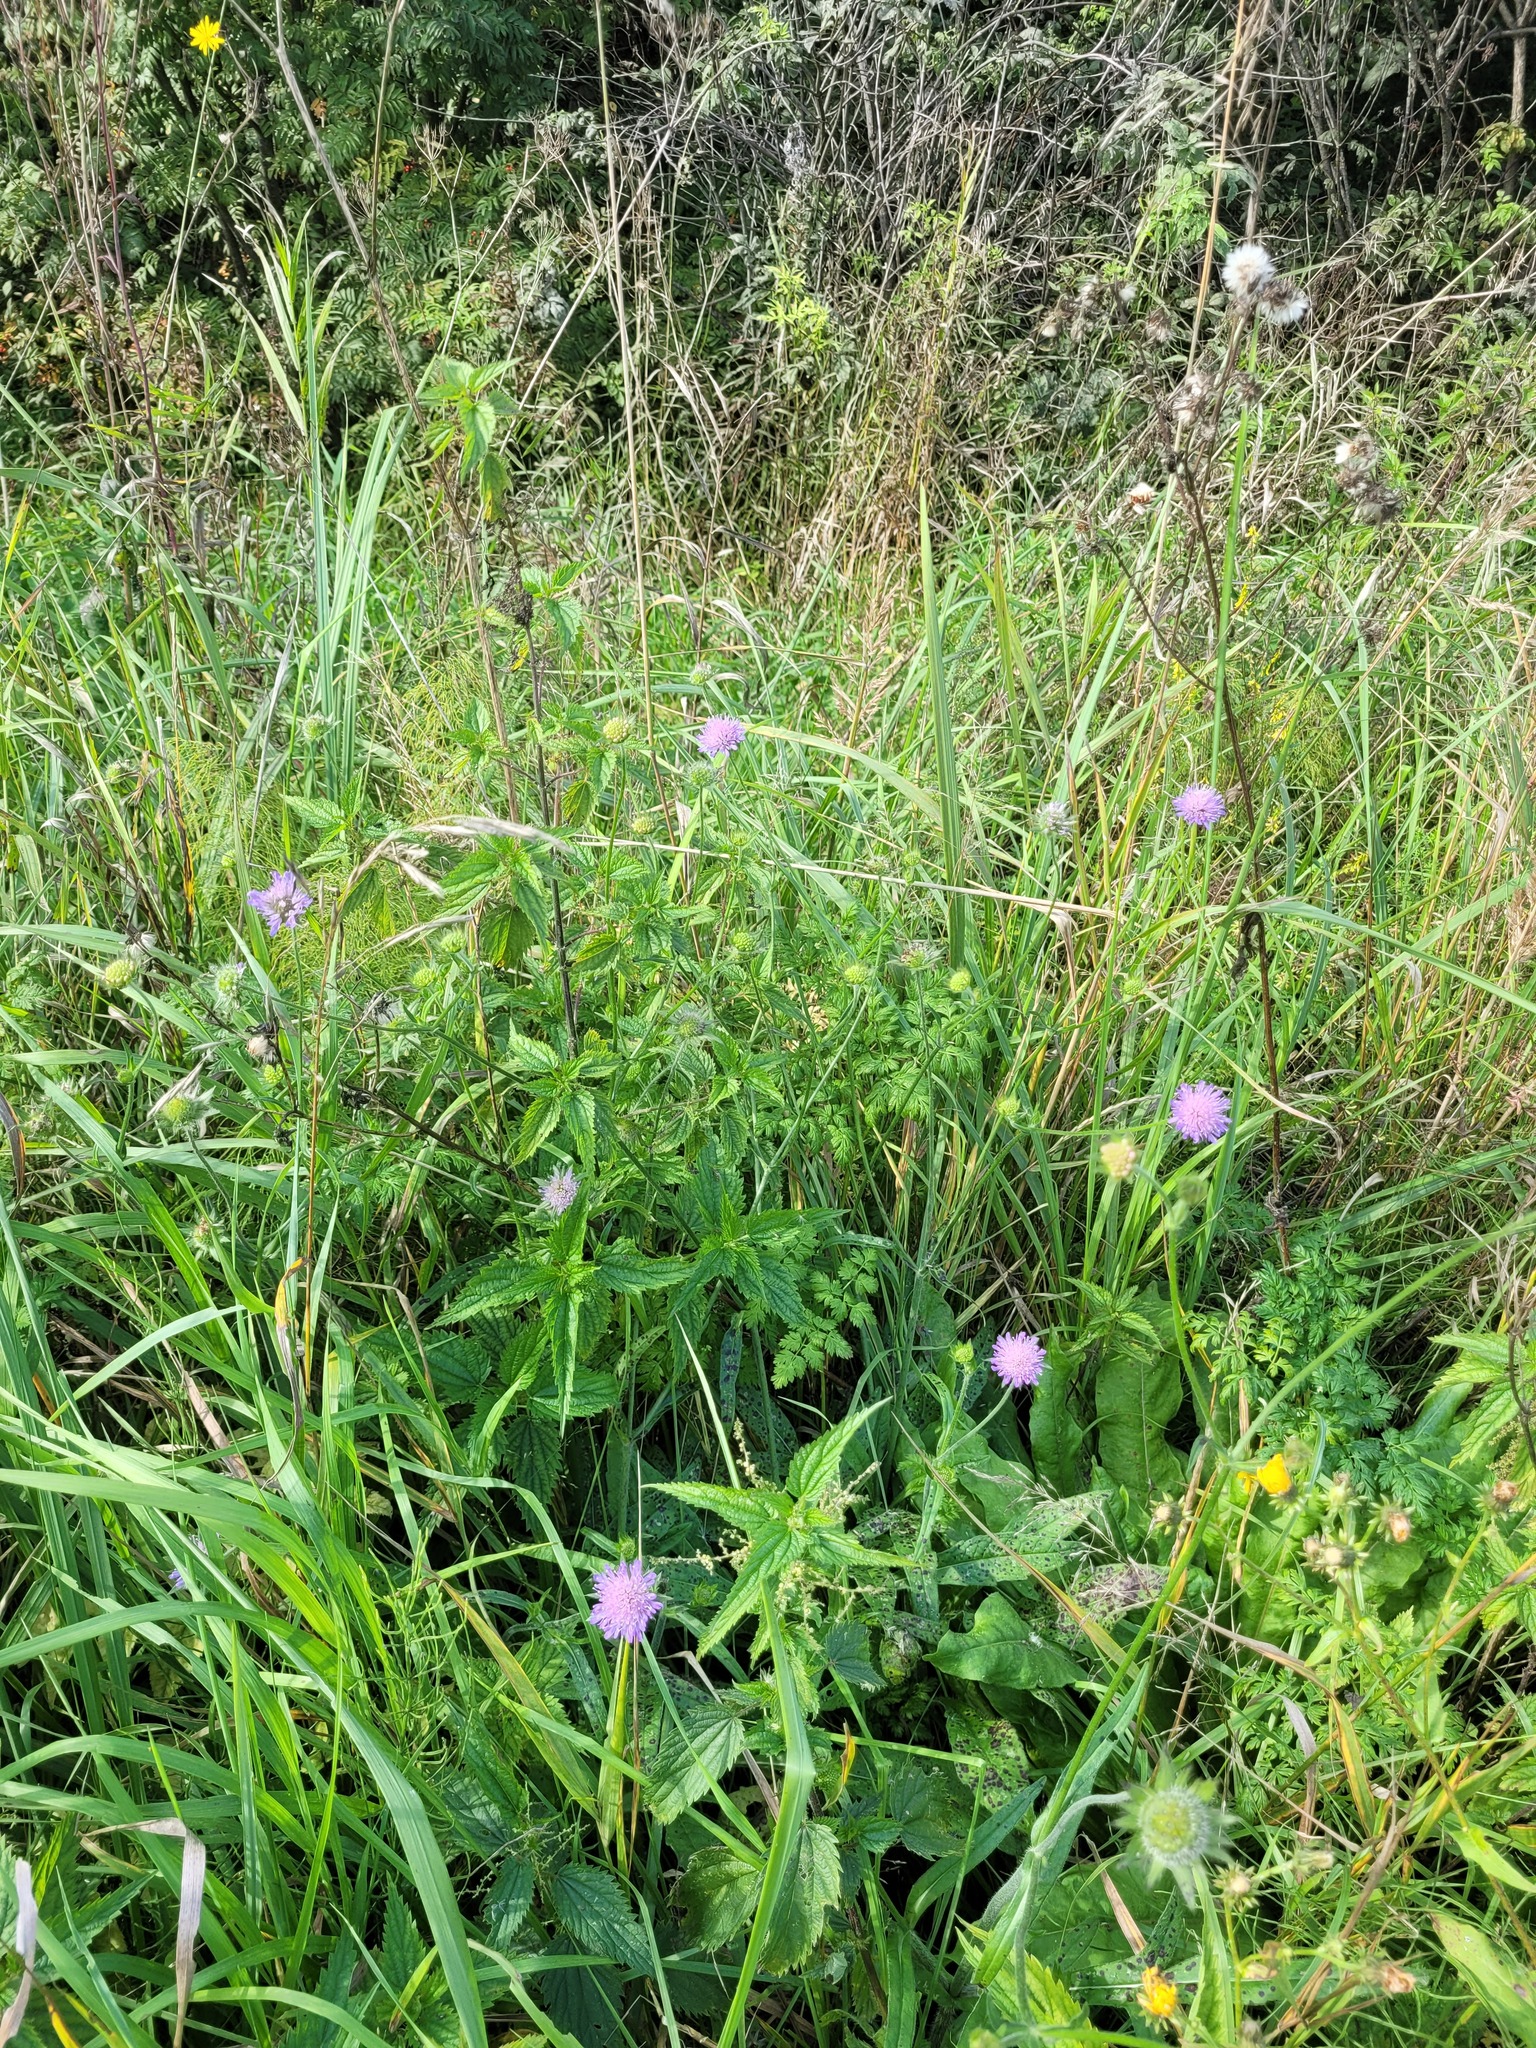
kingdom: Plantae
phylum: Tracheophyta
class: Magnoliopsida
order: Dipsacales
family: Caprifoliaceae
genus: Knautia
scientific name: Knautia arvensis
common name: Field scabiosa
